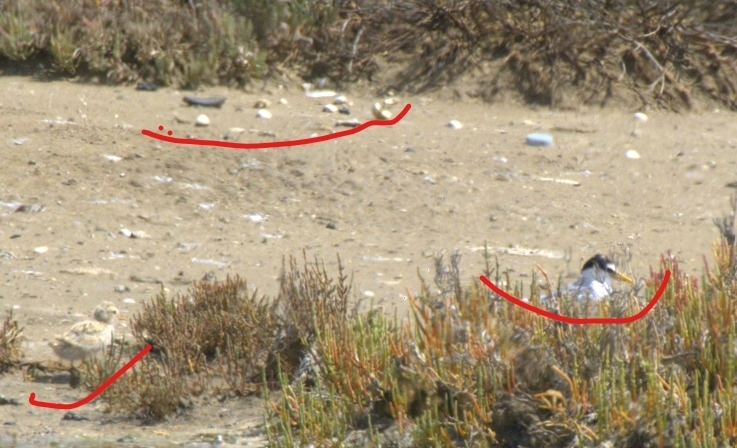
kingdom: Animalia
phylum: Chordata
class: Aves
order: Charadriiformes
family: Laridae
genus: Sternula
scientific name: Sternula albifrons
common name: Little tern
